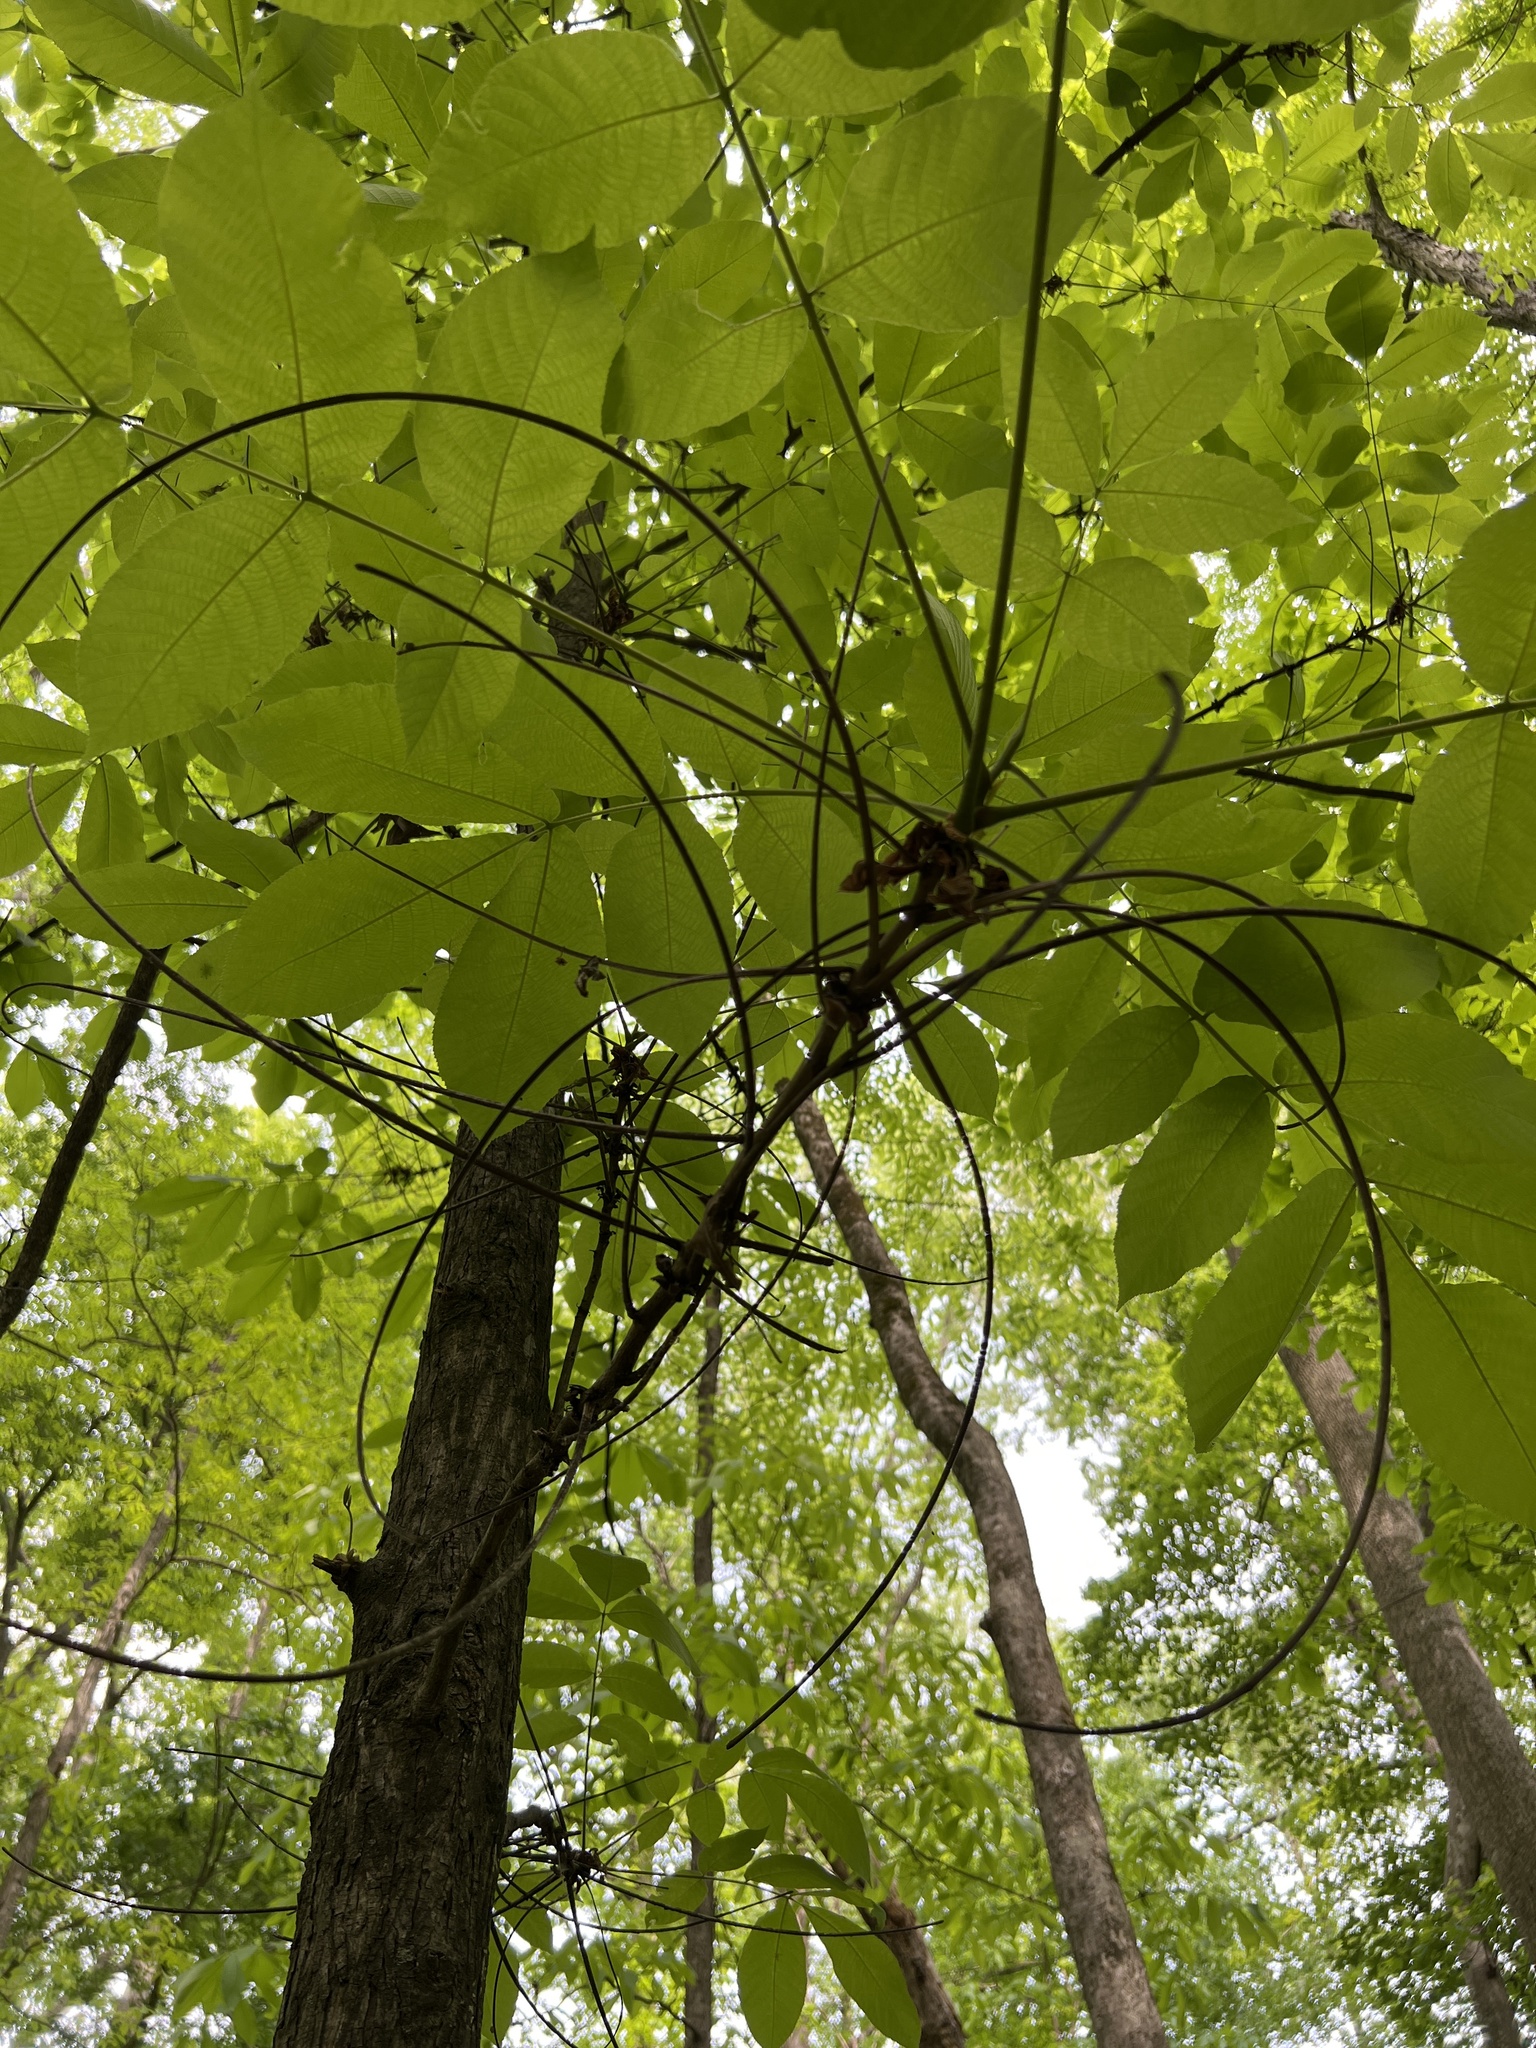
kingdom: Plantae
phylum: Tracheophyta
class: Magnoliopsida
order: Fagales
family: Juglandaceae
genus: Carya
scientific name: Carya laciniosa
